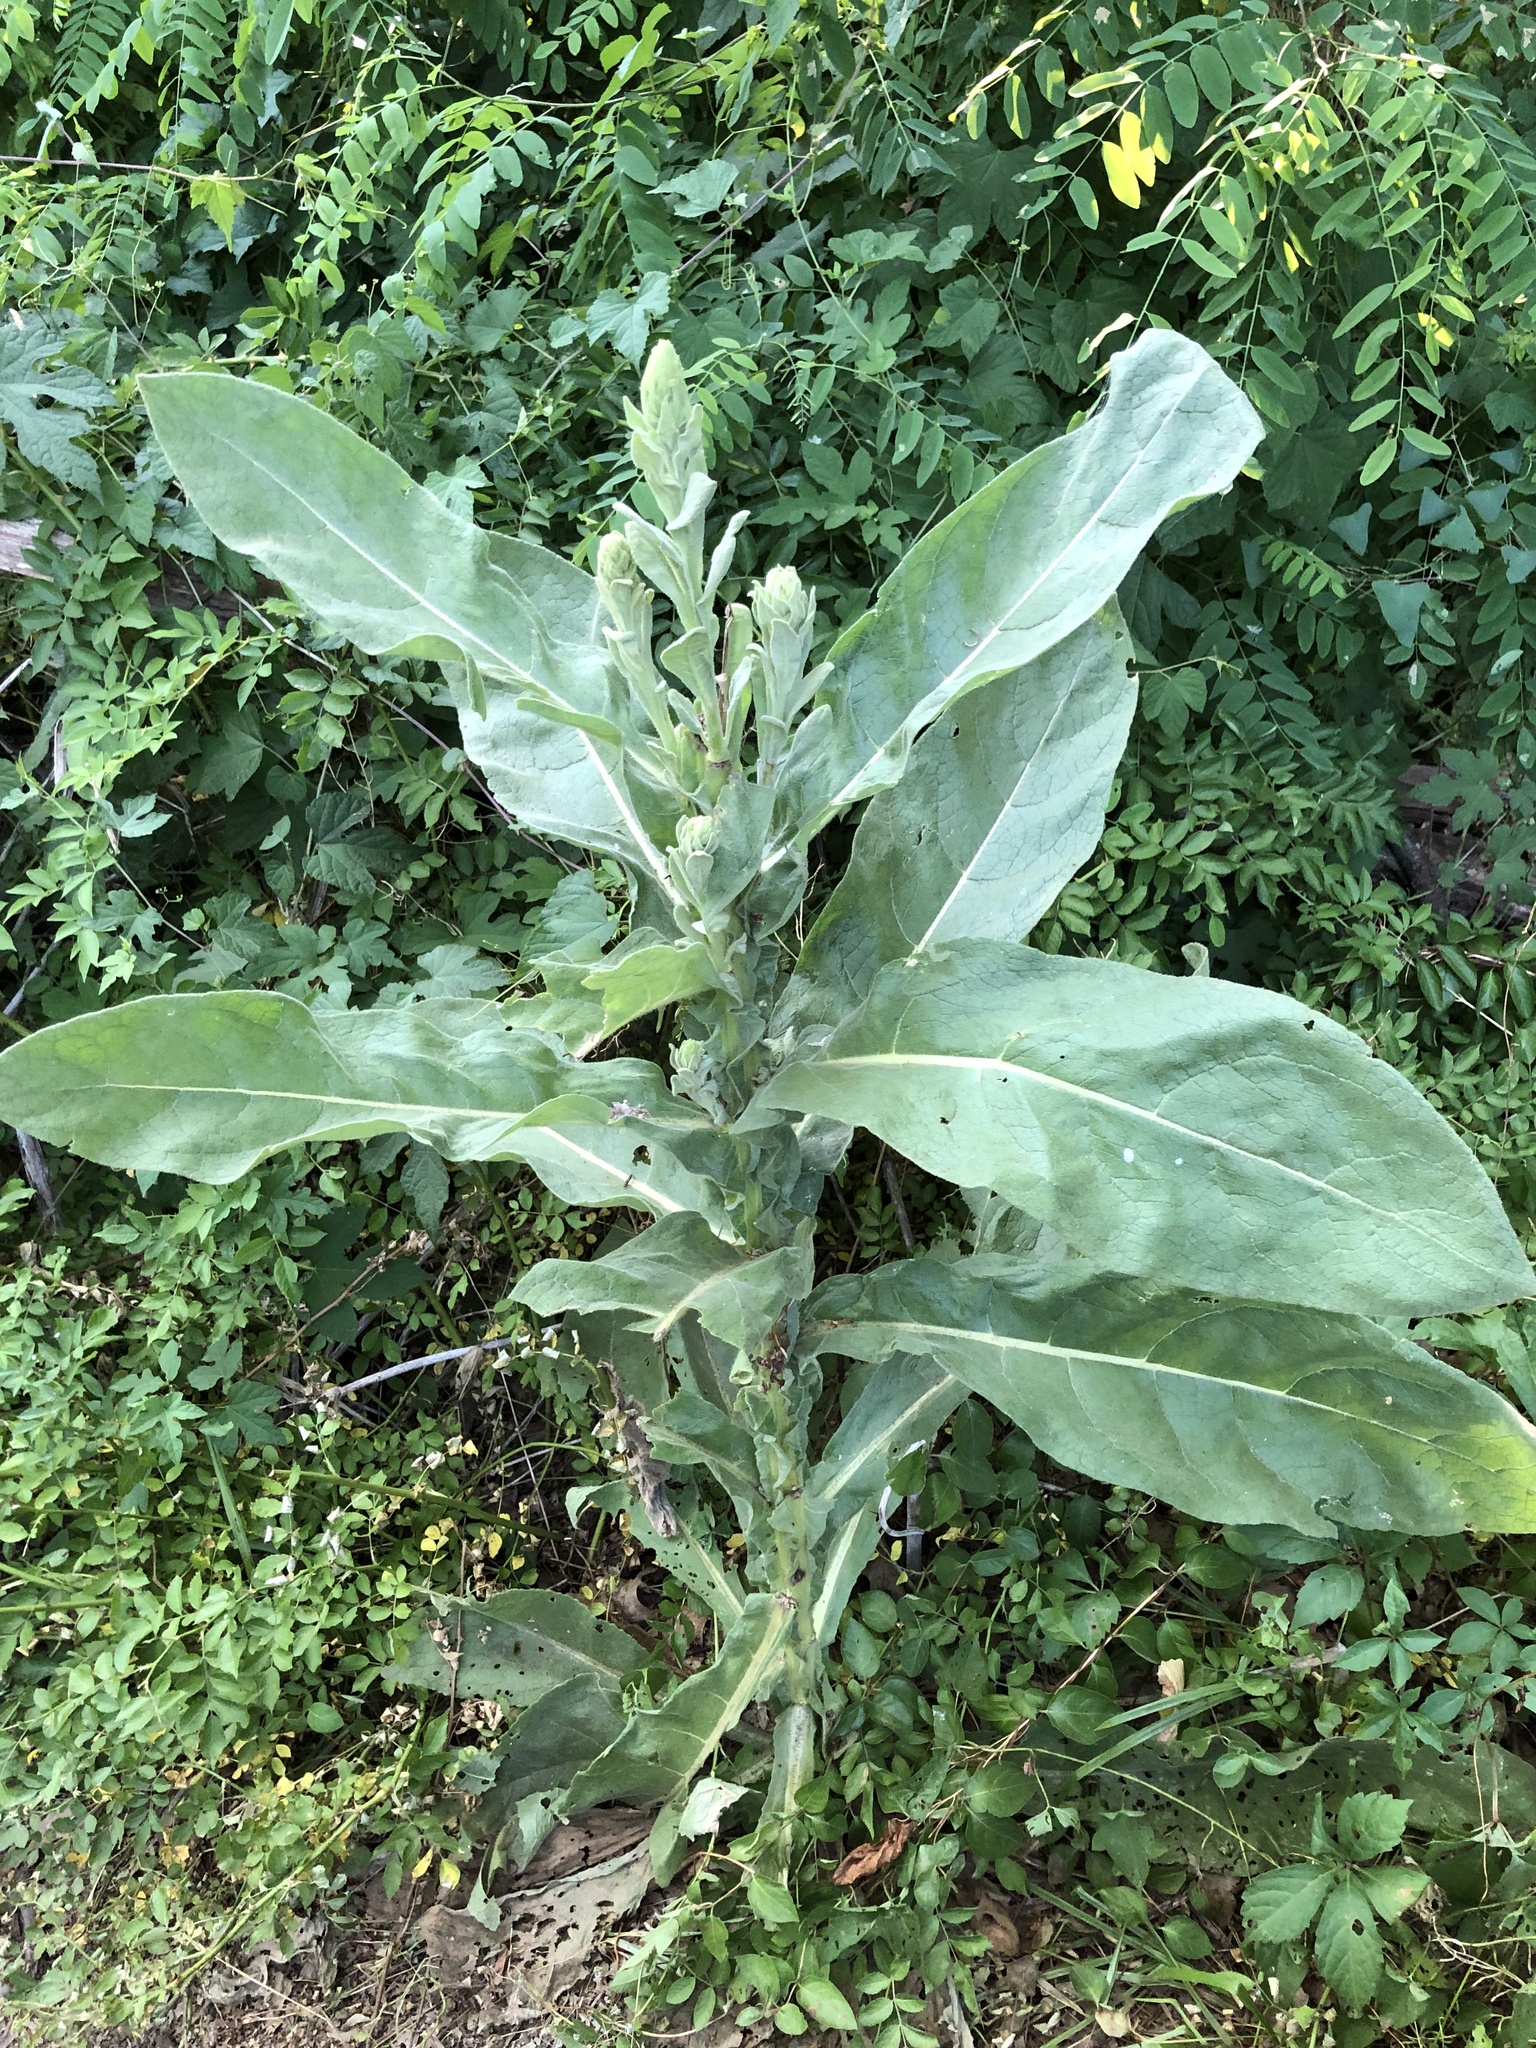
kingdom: Plantae
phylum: Tracheophyta
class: Magnoliopsida
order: Lamiales
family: Scrophulariaceae
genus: Verbascum
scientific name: Verbascum thapsus
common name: Common mullein
